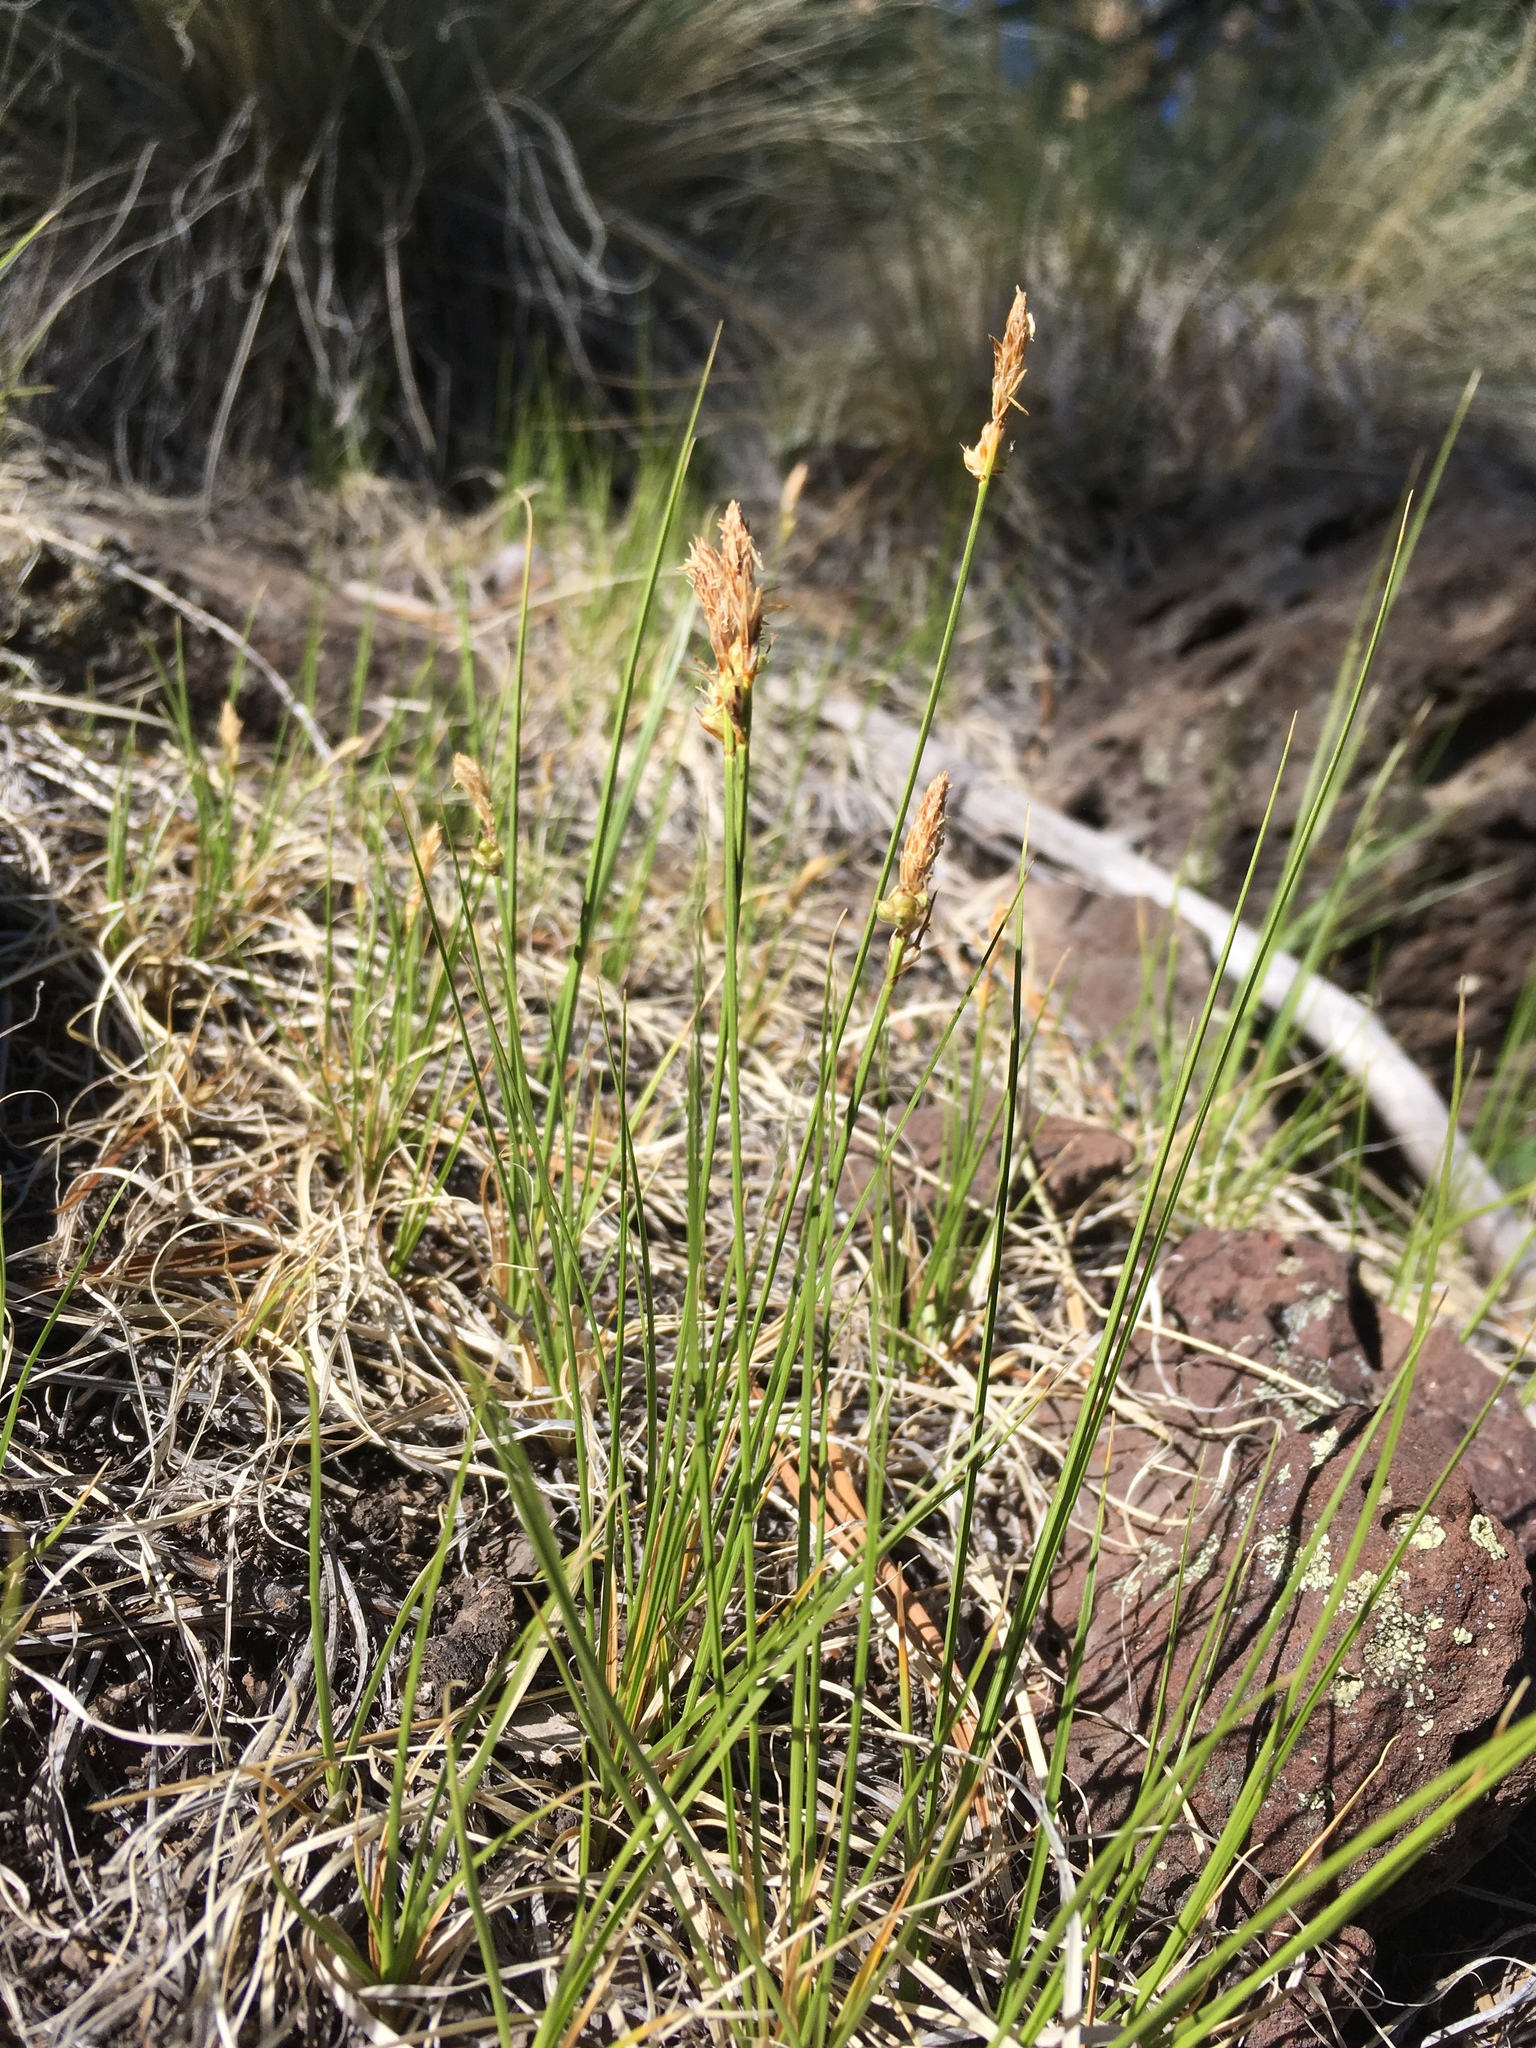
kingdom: Plantae
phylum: Tracheophyta
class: Liliopsida
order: Poales
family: Cyperaceae
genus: Carex
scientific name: Carex inops
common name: Long-stolon sedge
